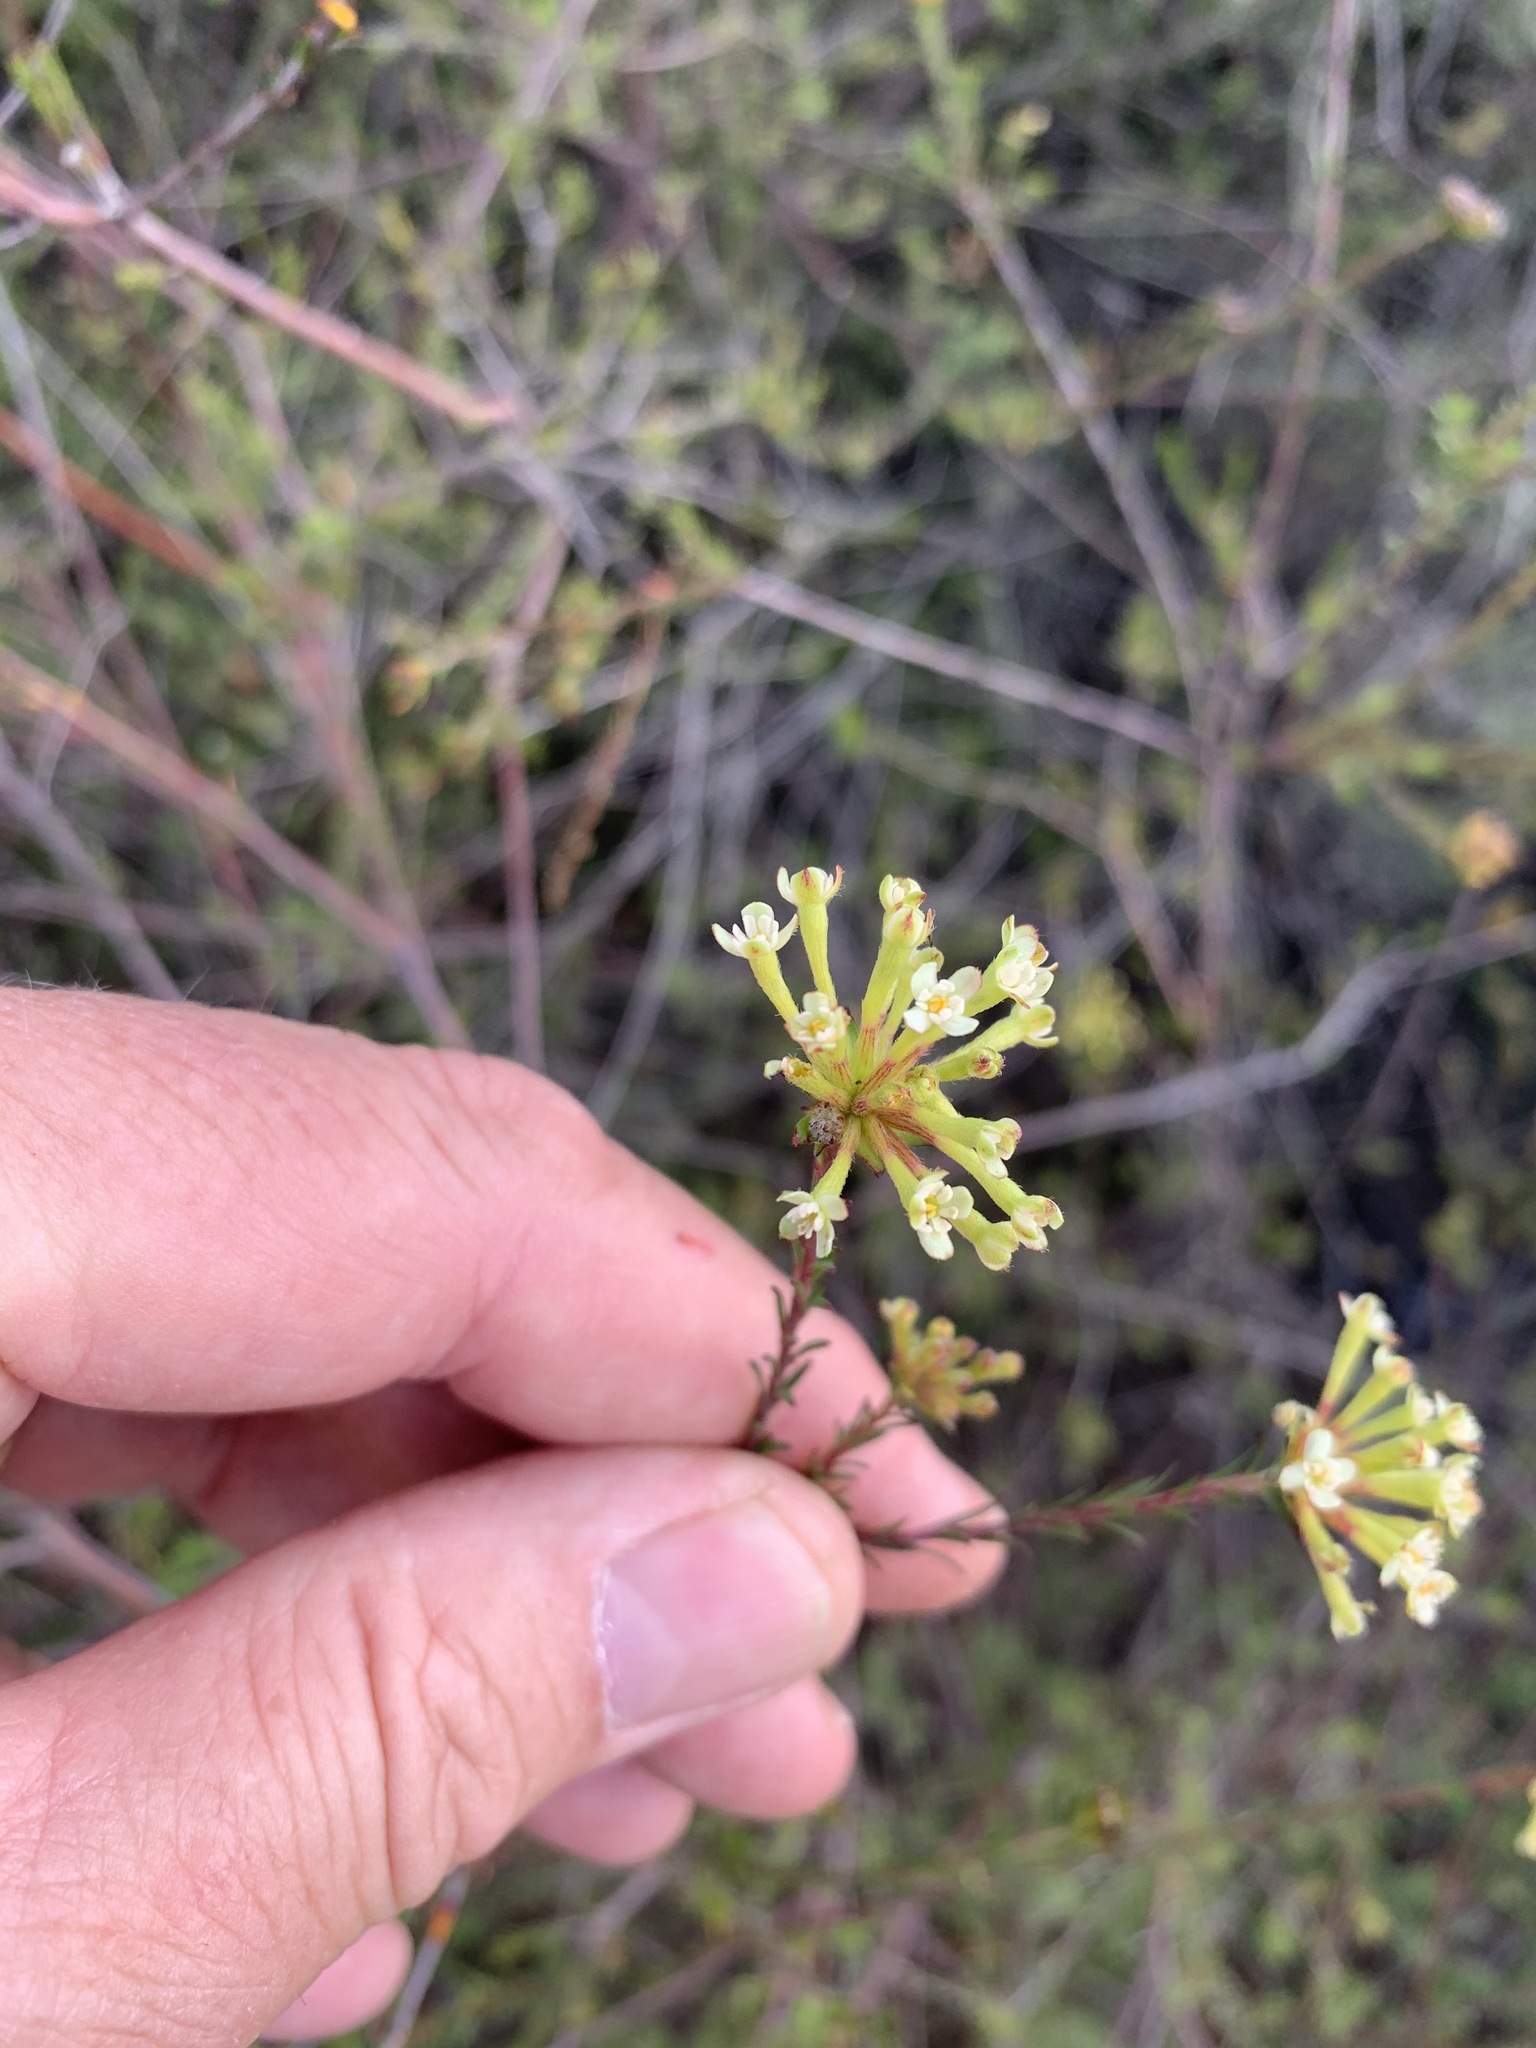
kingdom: Plantae
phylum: Tracheophyta
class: Magnoliopsida
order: Malvales
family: Thymelaeaceae
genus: Gnidia
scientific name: Gnidia squarrosa
